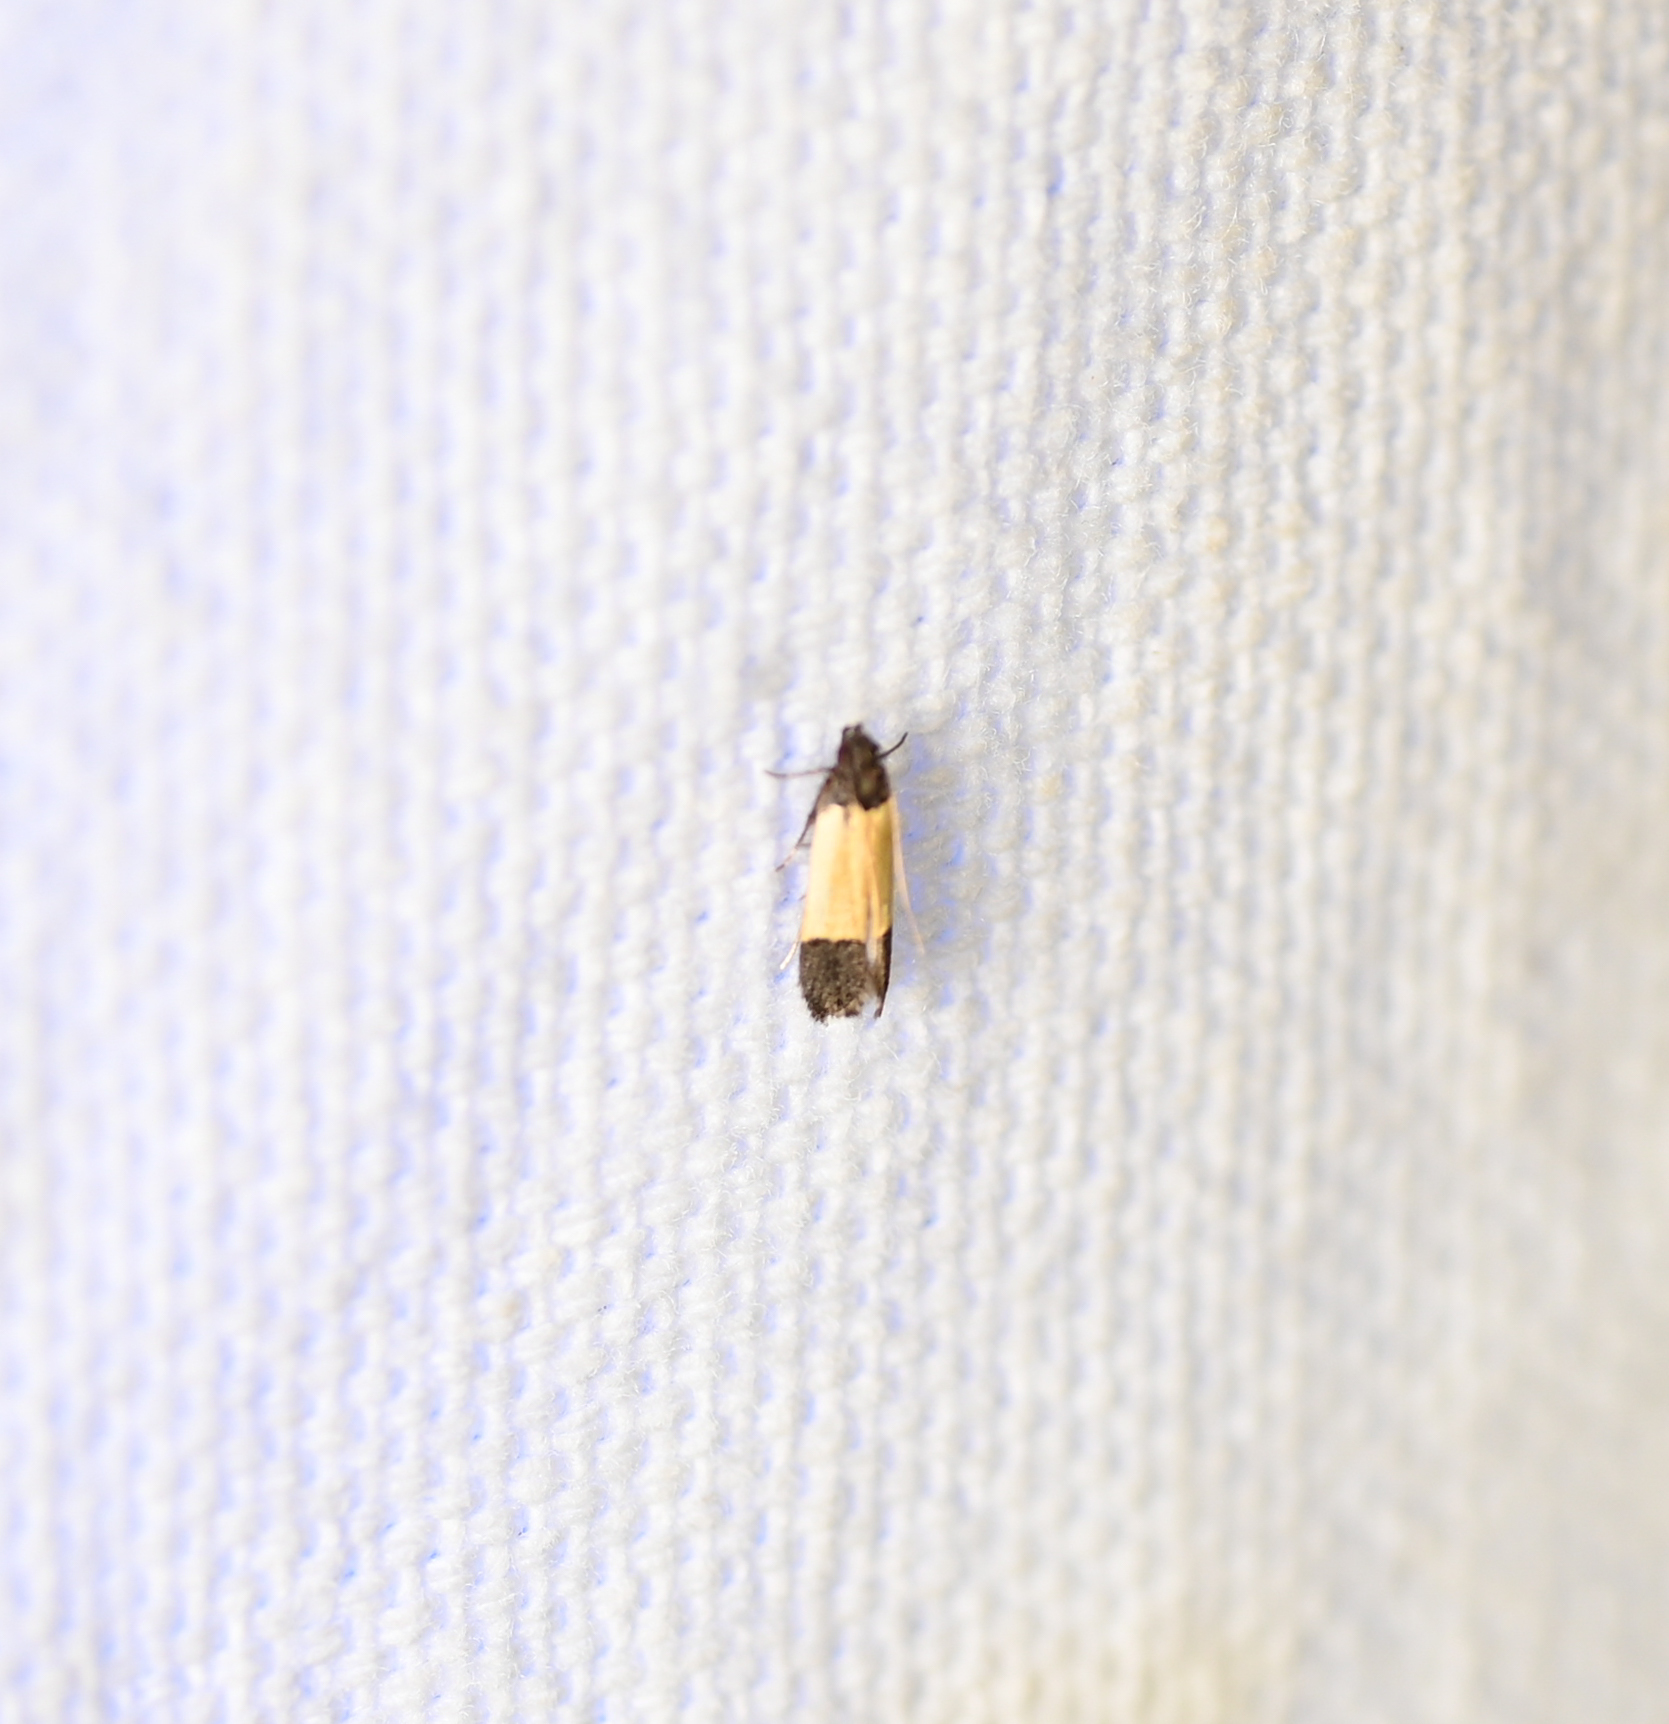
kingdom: Animalia
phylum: Arthropoda
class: Insecta
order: Lepidoptera
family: Gelechiidae
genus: Anacampsis
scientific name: Anacampsis coverdalella
